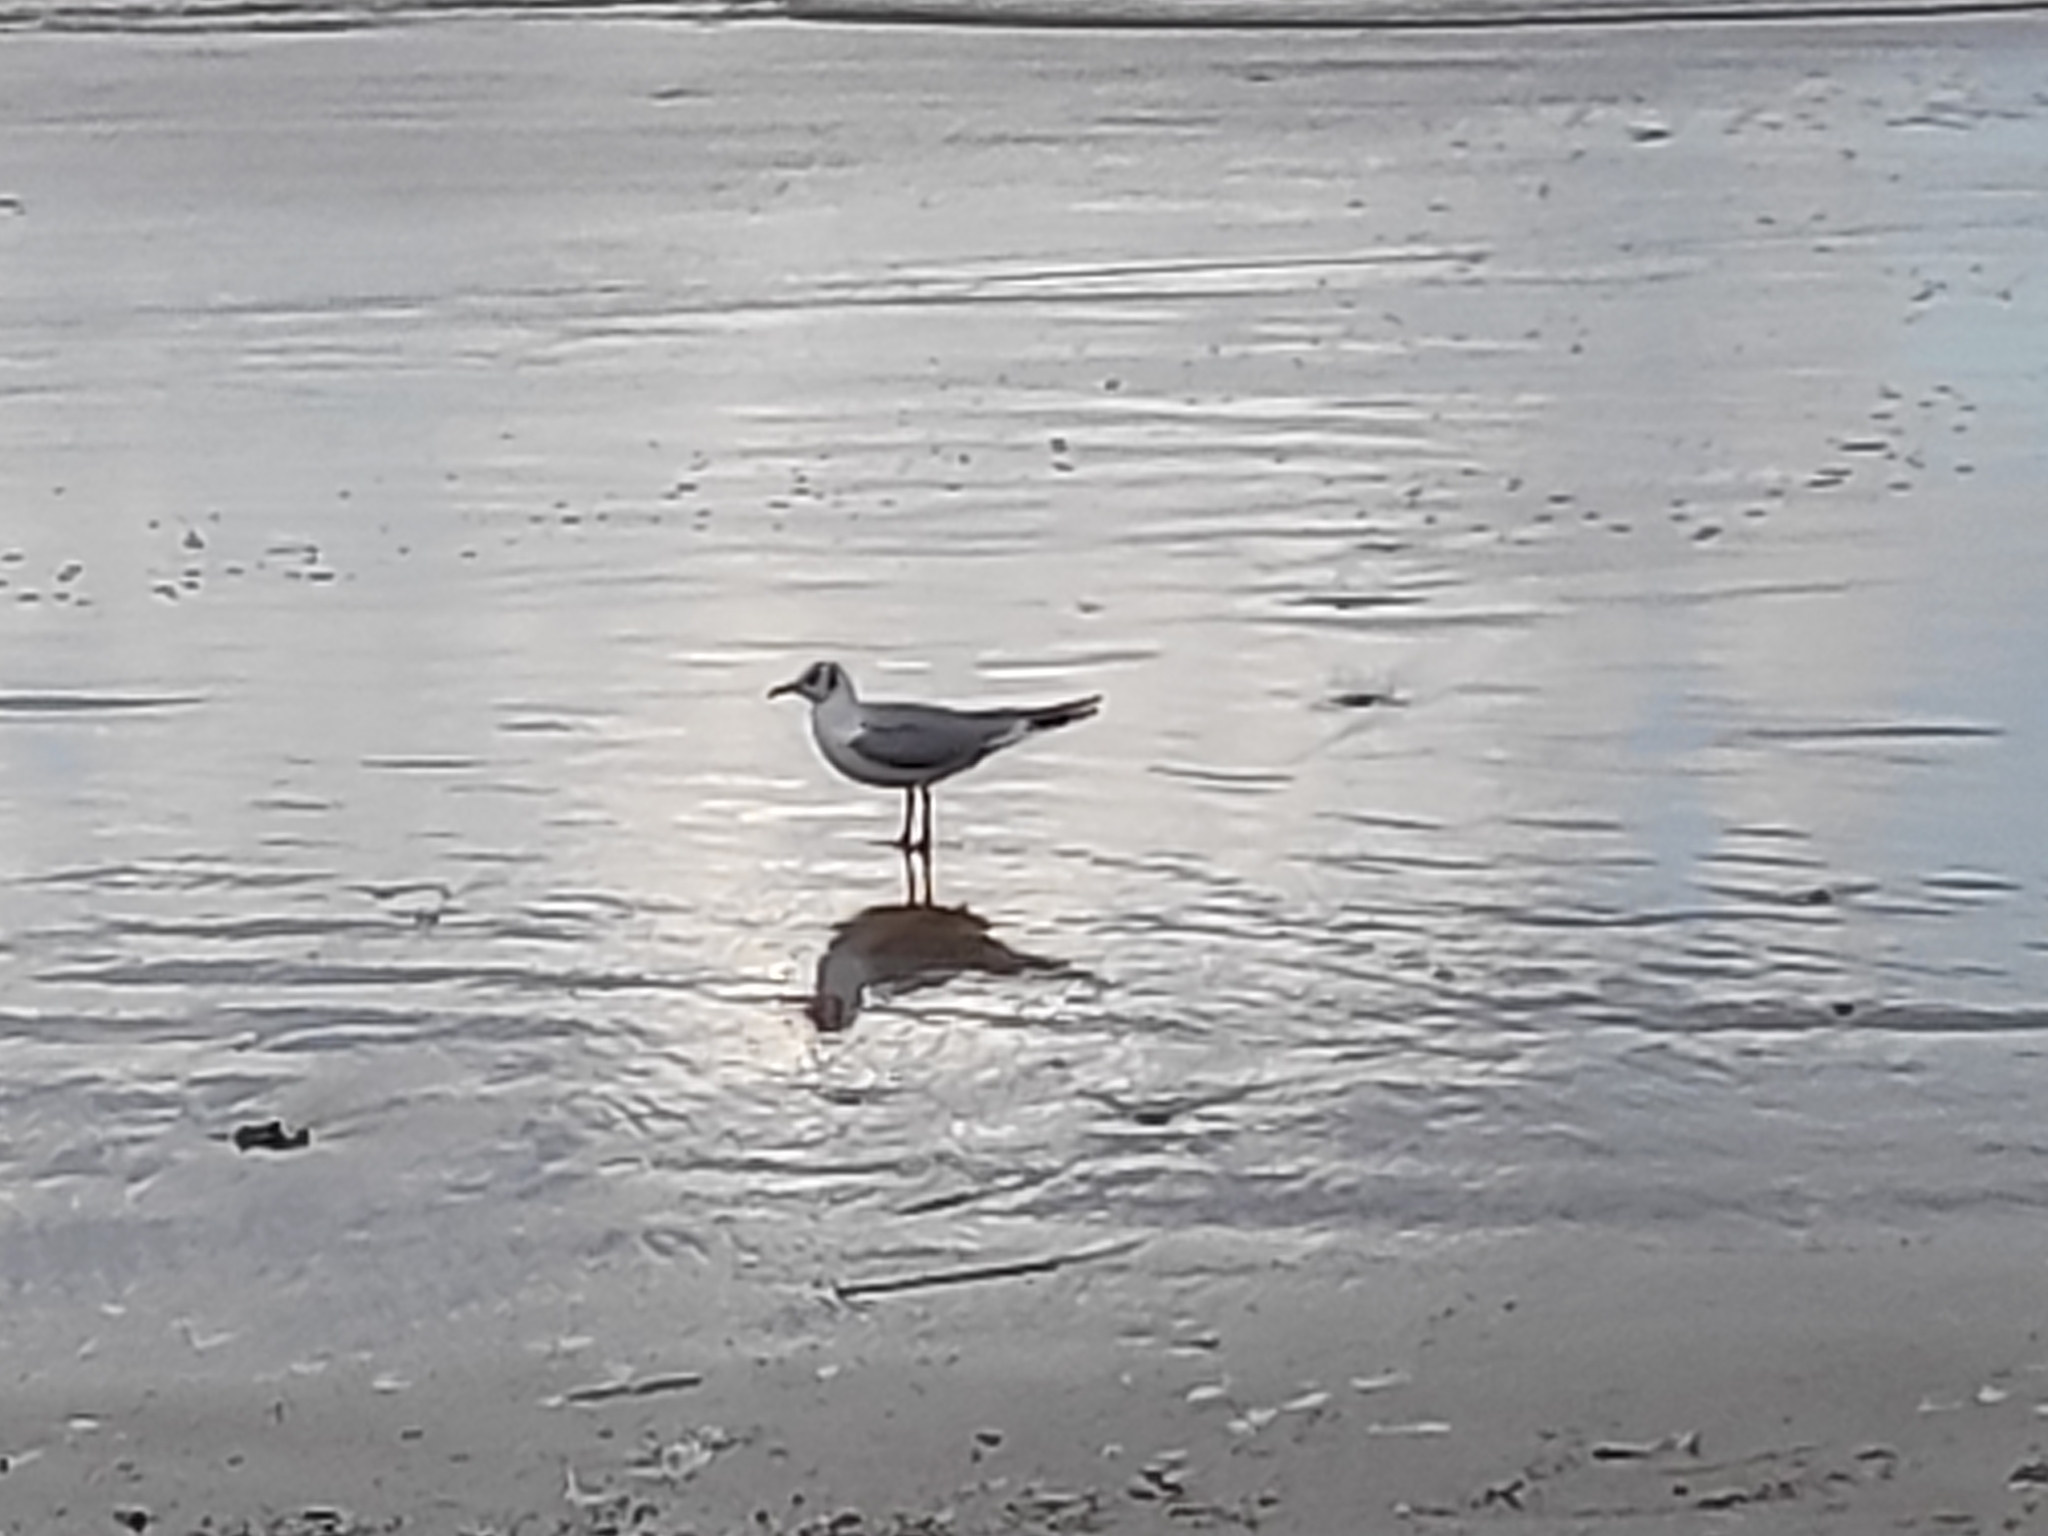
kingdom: Animalia
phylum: Chordata
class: Aves
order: Charadriiformes
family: Laridae
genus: Chroicocephalus
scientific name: Chroicocephalus ridibundus
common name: Black-headed gull
